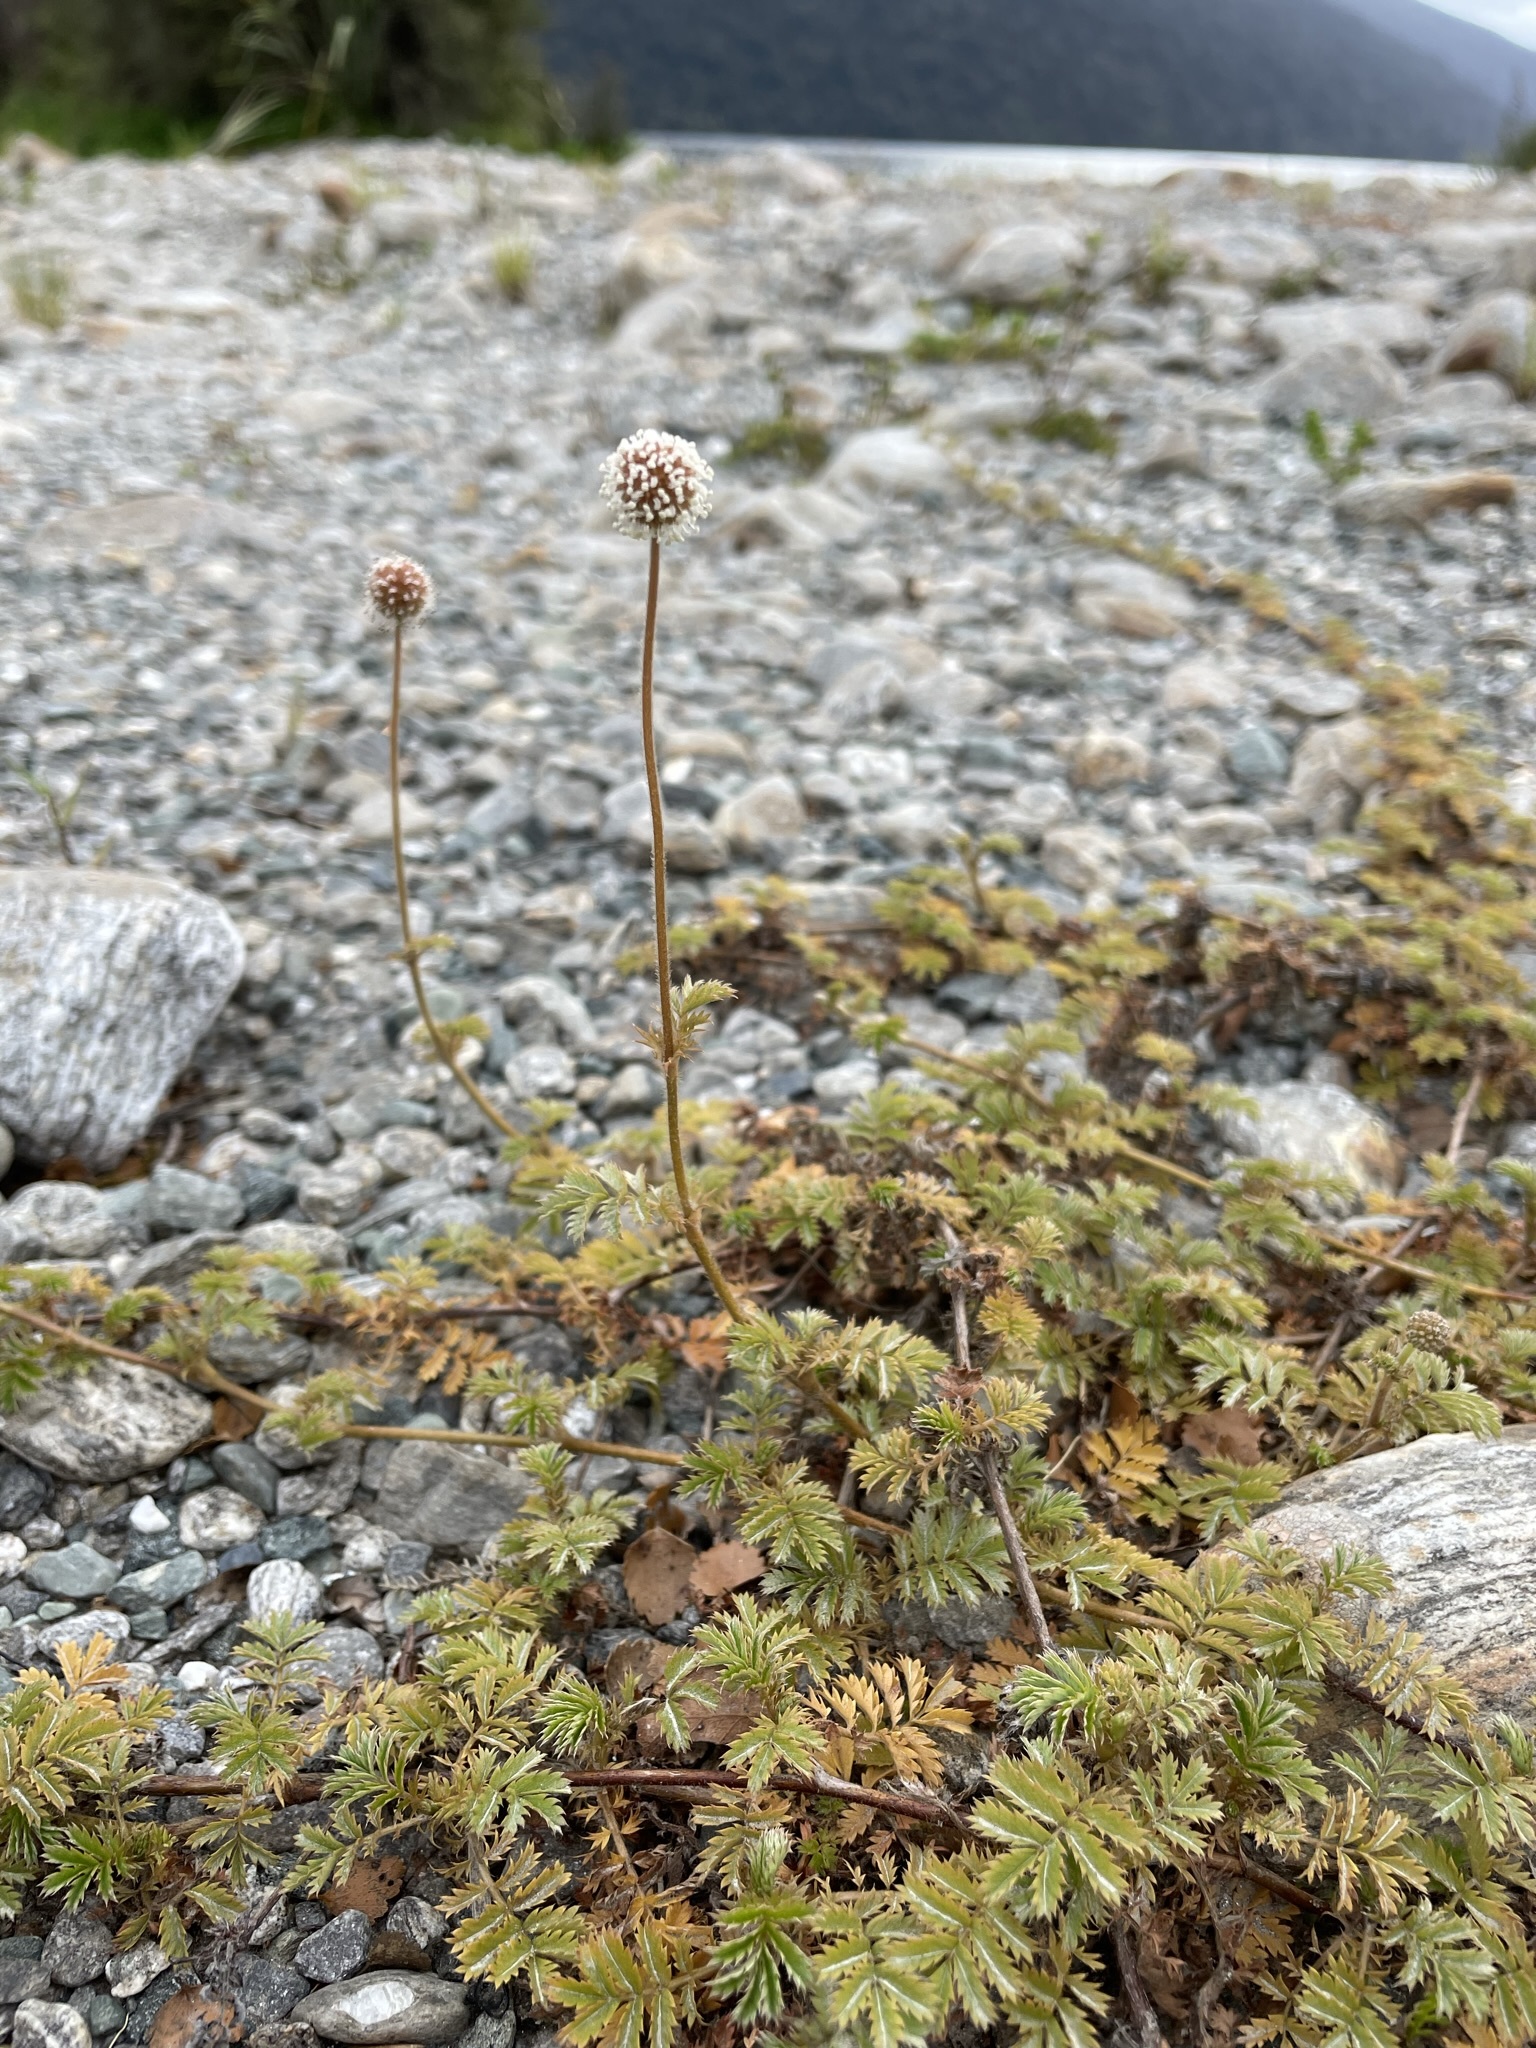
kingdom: Plantae
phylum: Tracheophyta
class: Magnoliopsida
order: Rosales
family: Rosaceae
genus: Acaena
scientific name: Acaena anserinifolia
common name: Bronze pirri-pirri-bur
